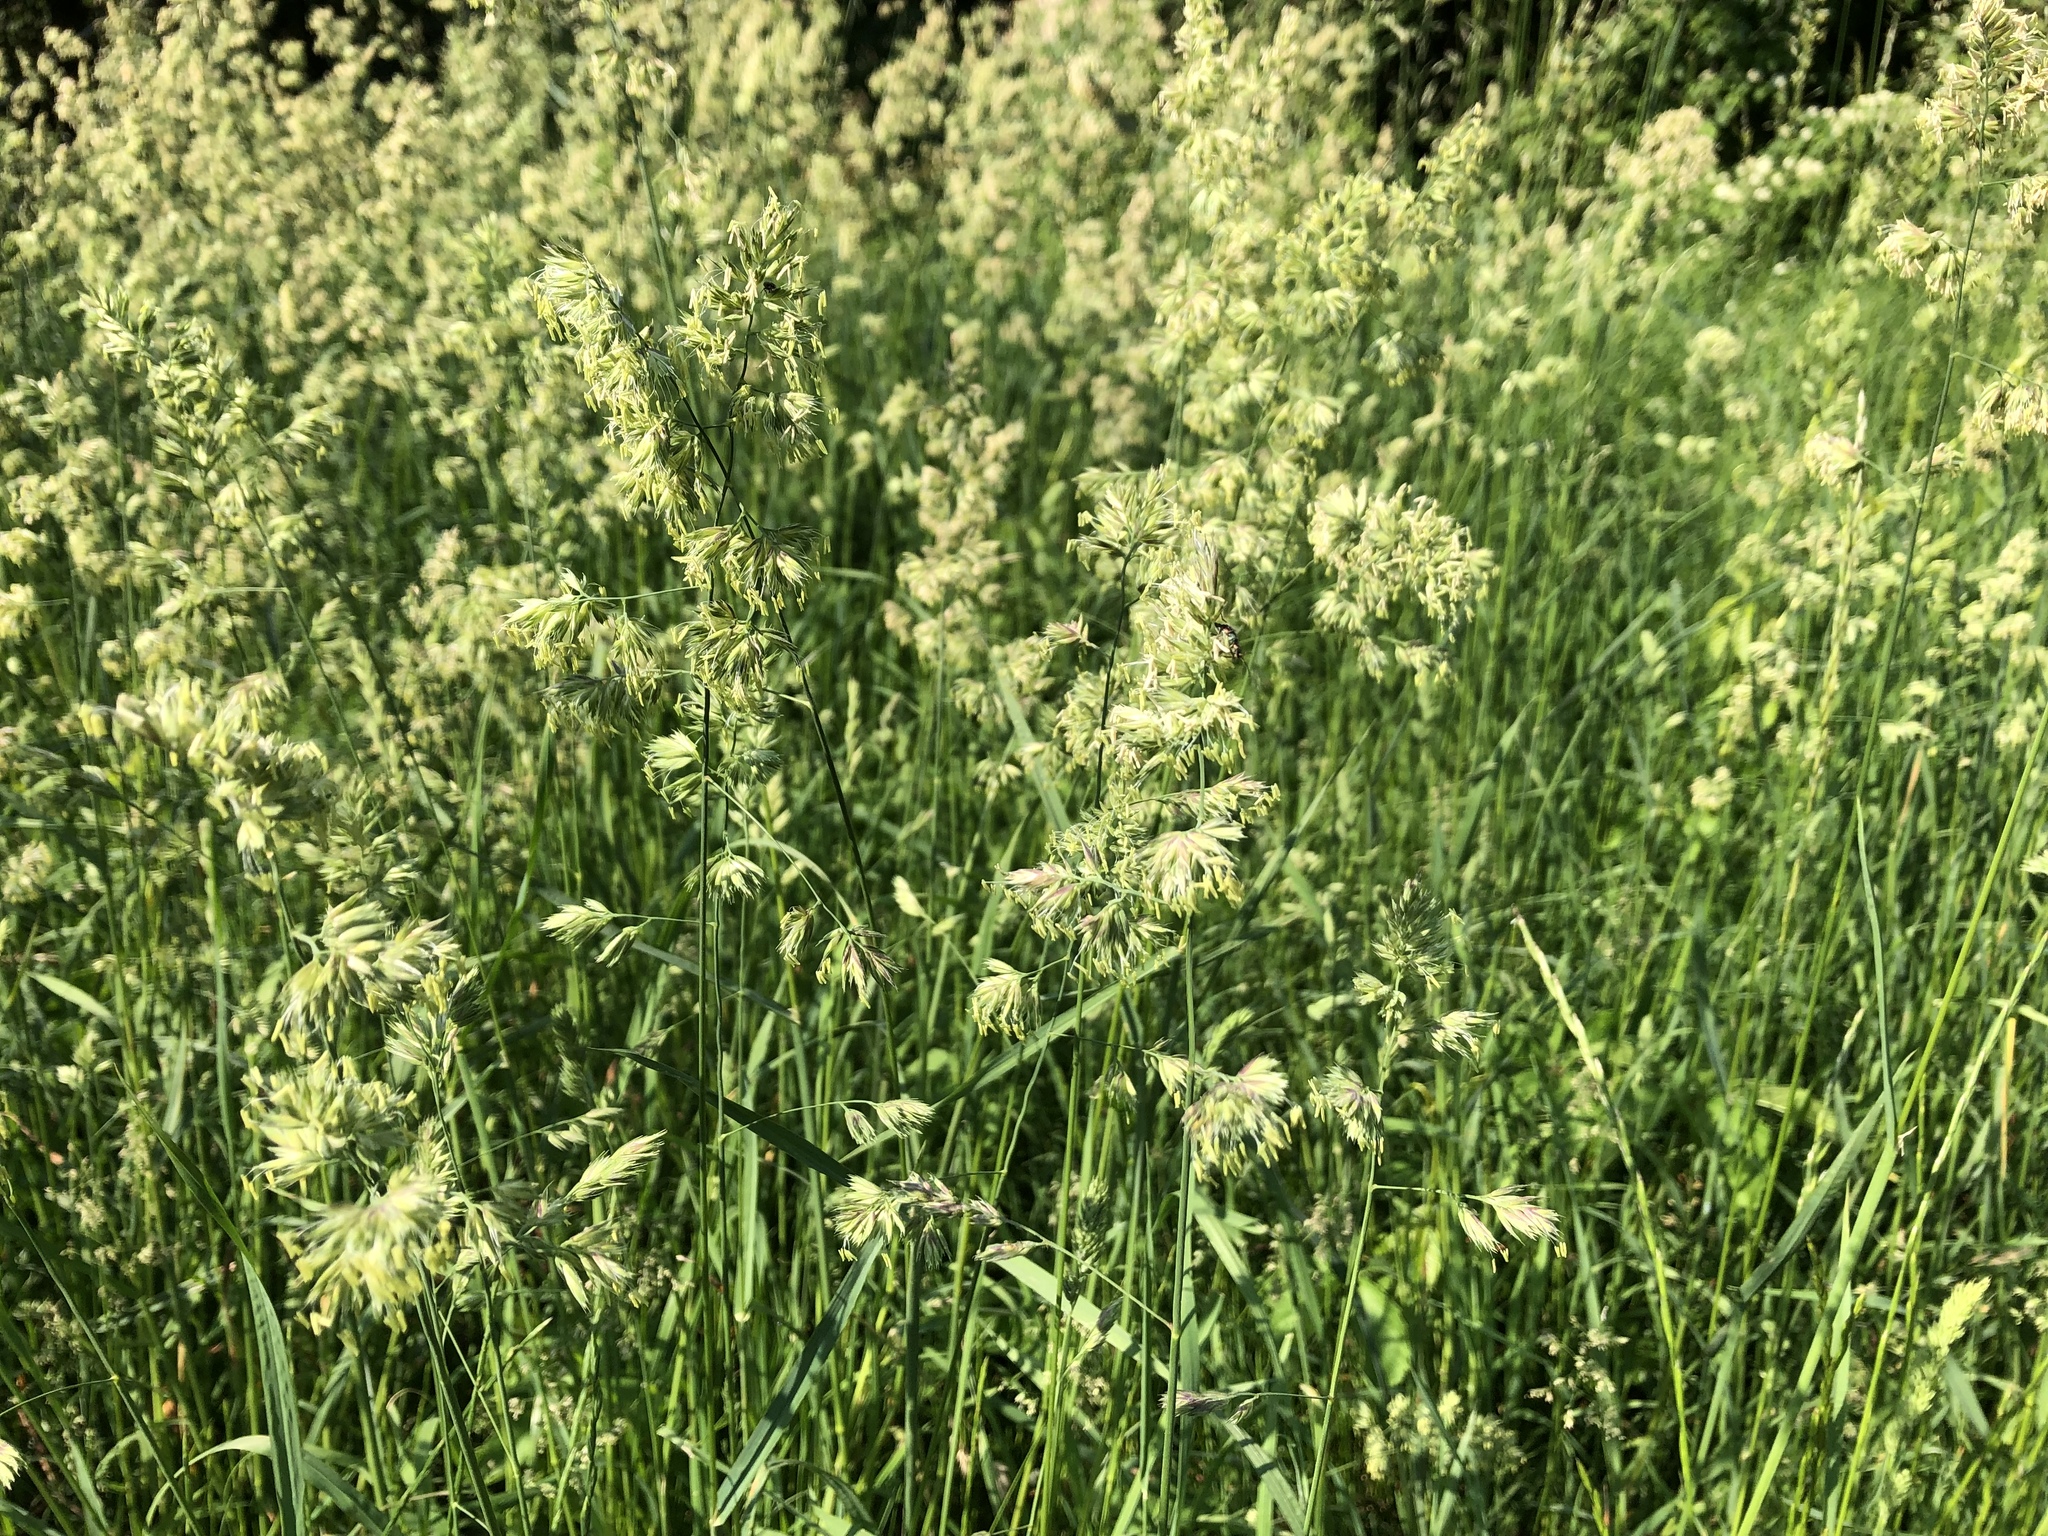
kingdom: Plantae
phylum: Tracheophyta
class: Liliopsida
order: Poales
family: Poaceae
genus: Dactylis
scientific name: Dactylis glomerata
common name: Orchardgrass
